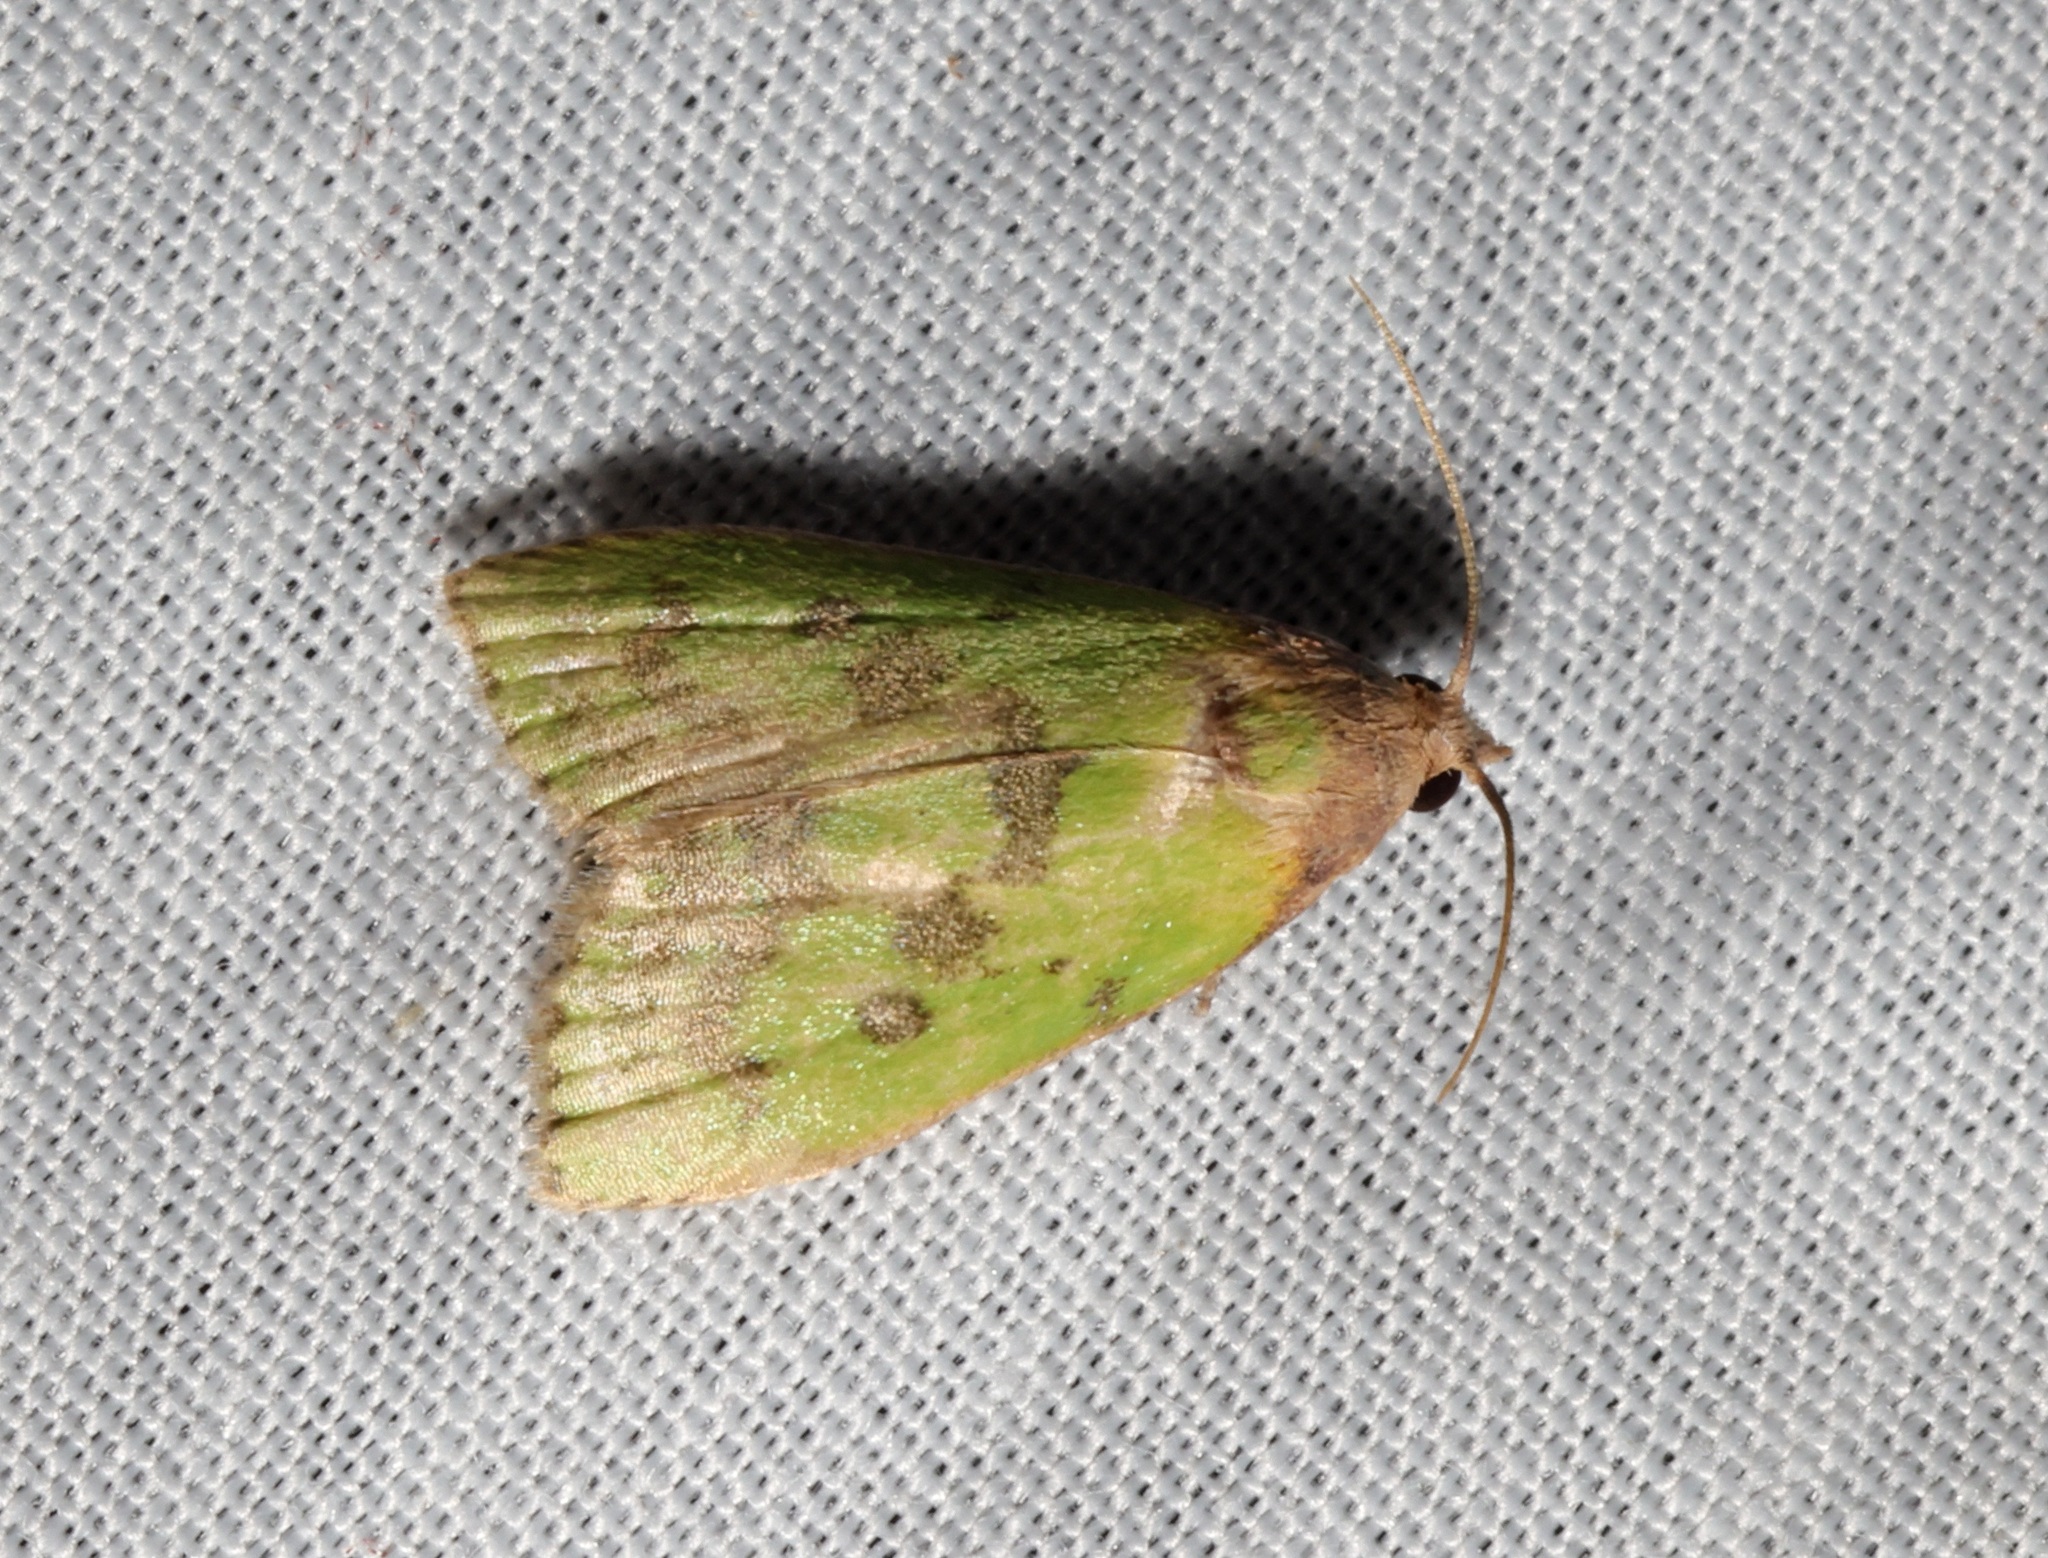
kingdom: Animalia
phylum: Arthropoda
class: Insecta
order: Lepidoptera
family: Pyralidae
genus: Doloessa
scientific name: Doloessa viridis
